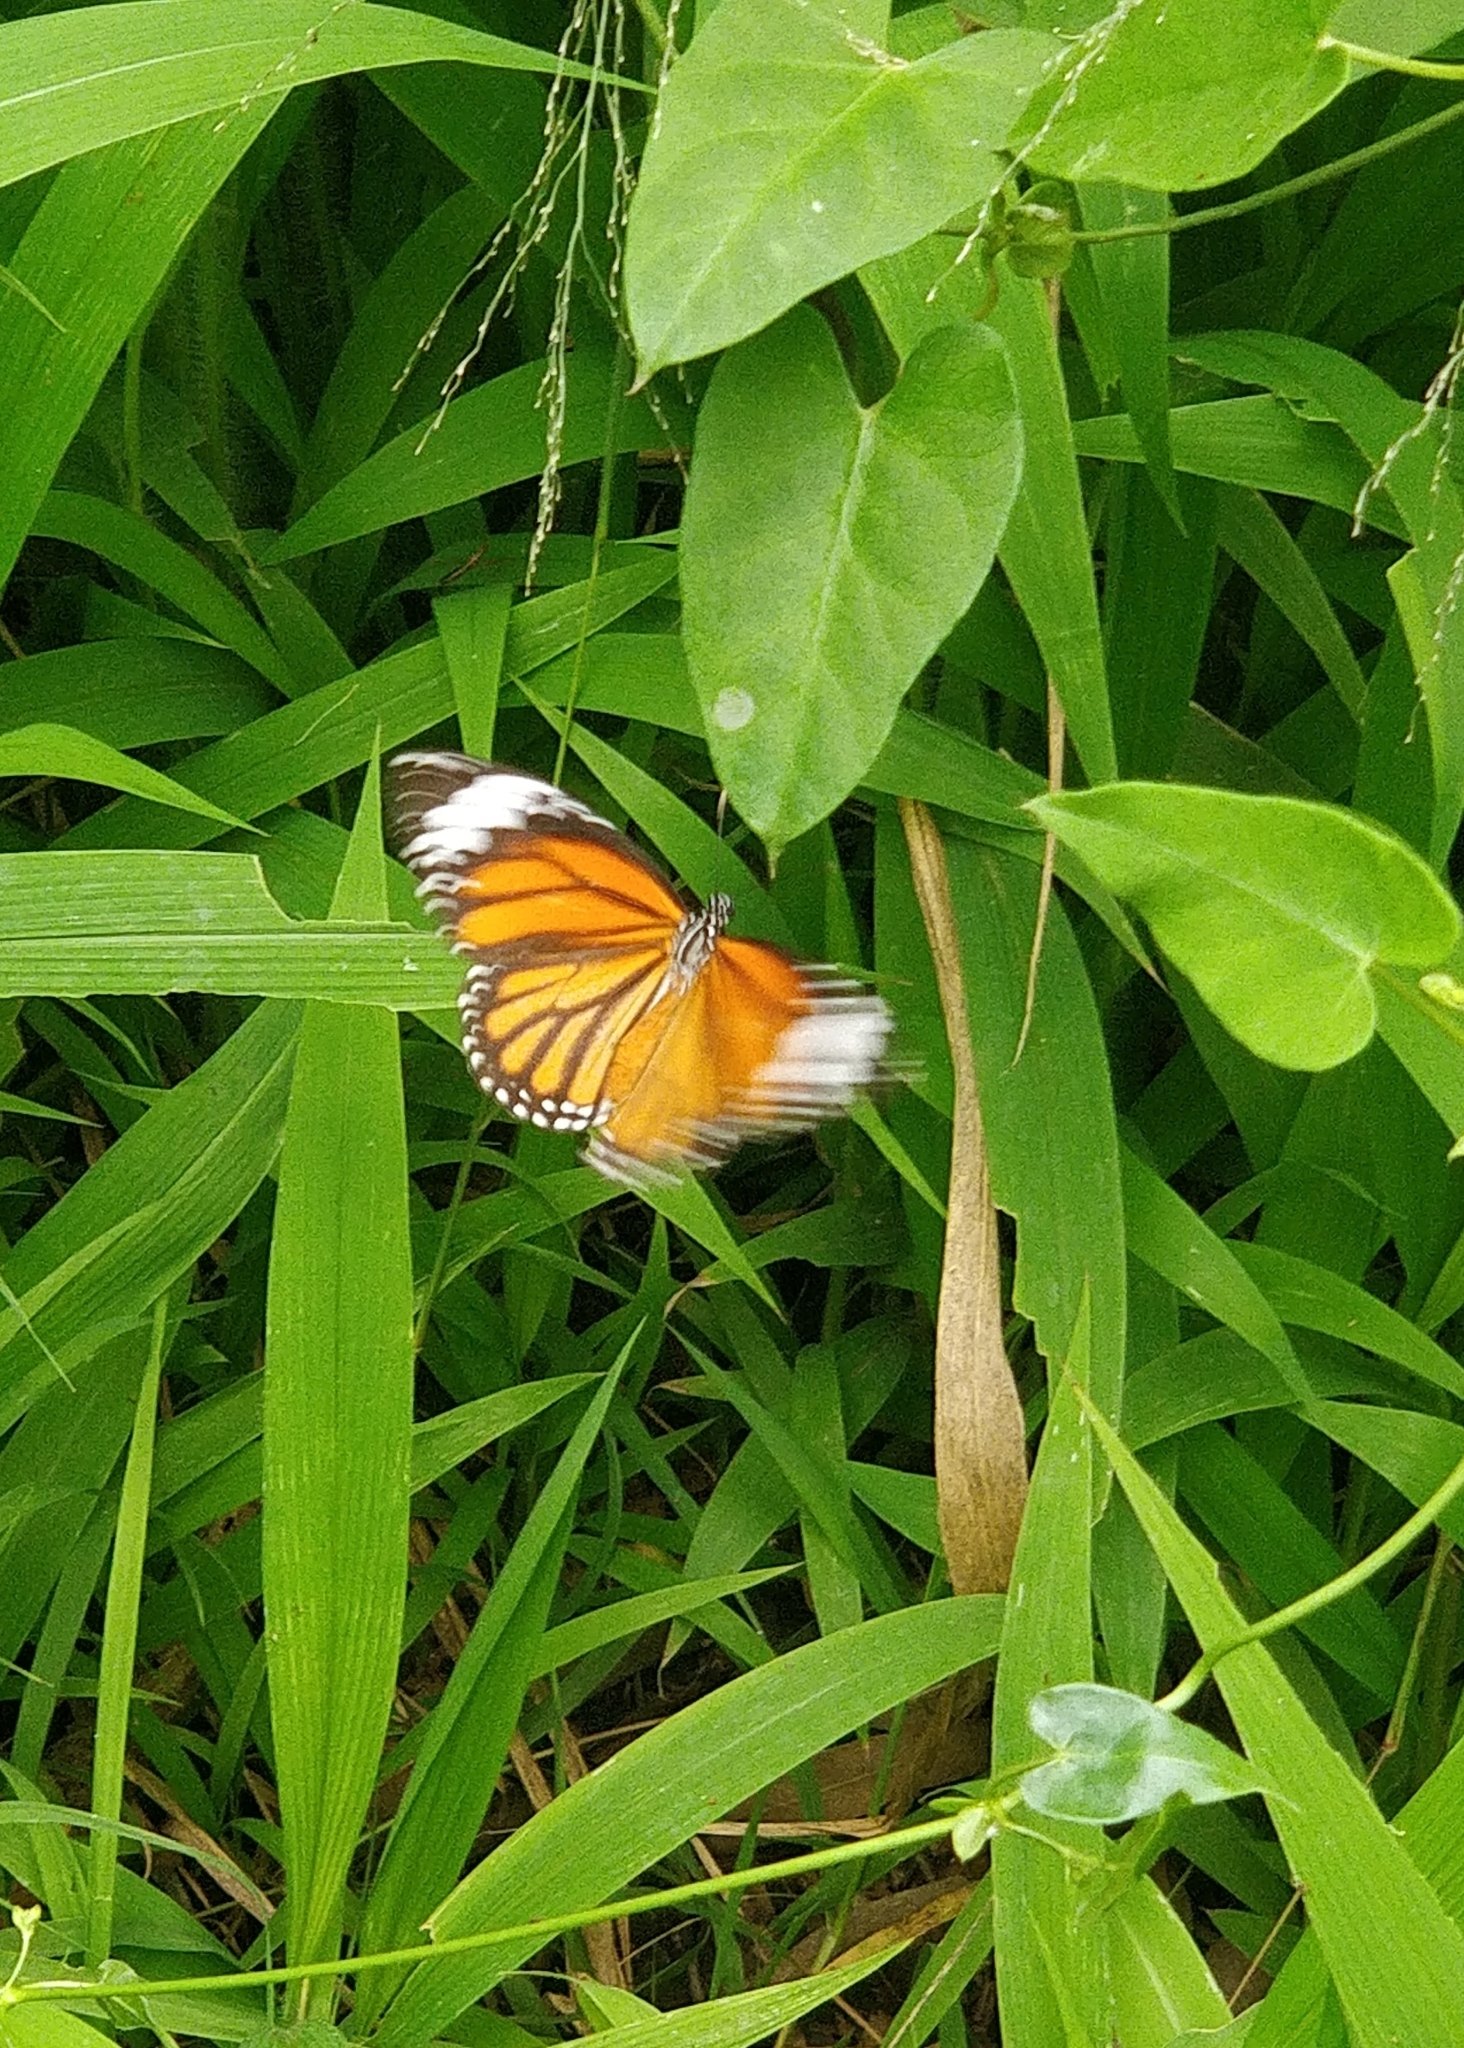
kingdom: Animalia
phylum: Arthropoda
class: Insecta
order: Lepidoptera
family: Nymphalidae
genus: Danaus
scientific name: Danaus genutia
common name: Common tiger butterfly
